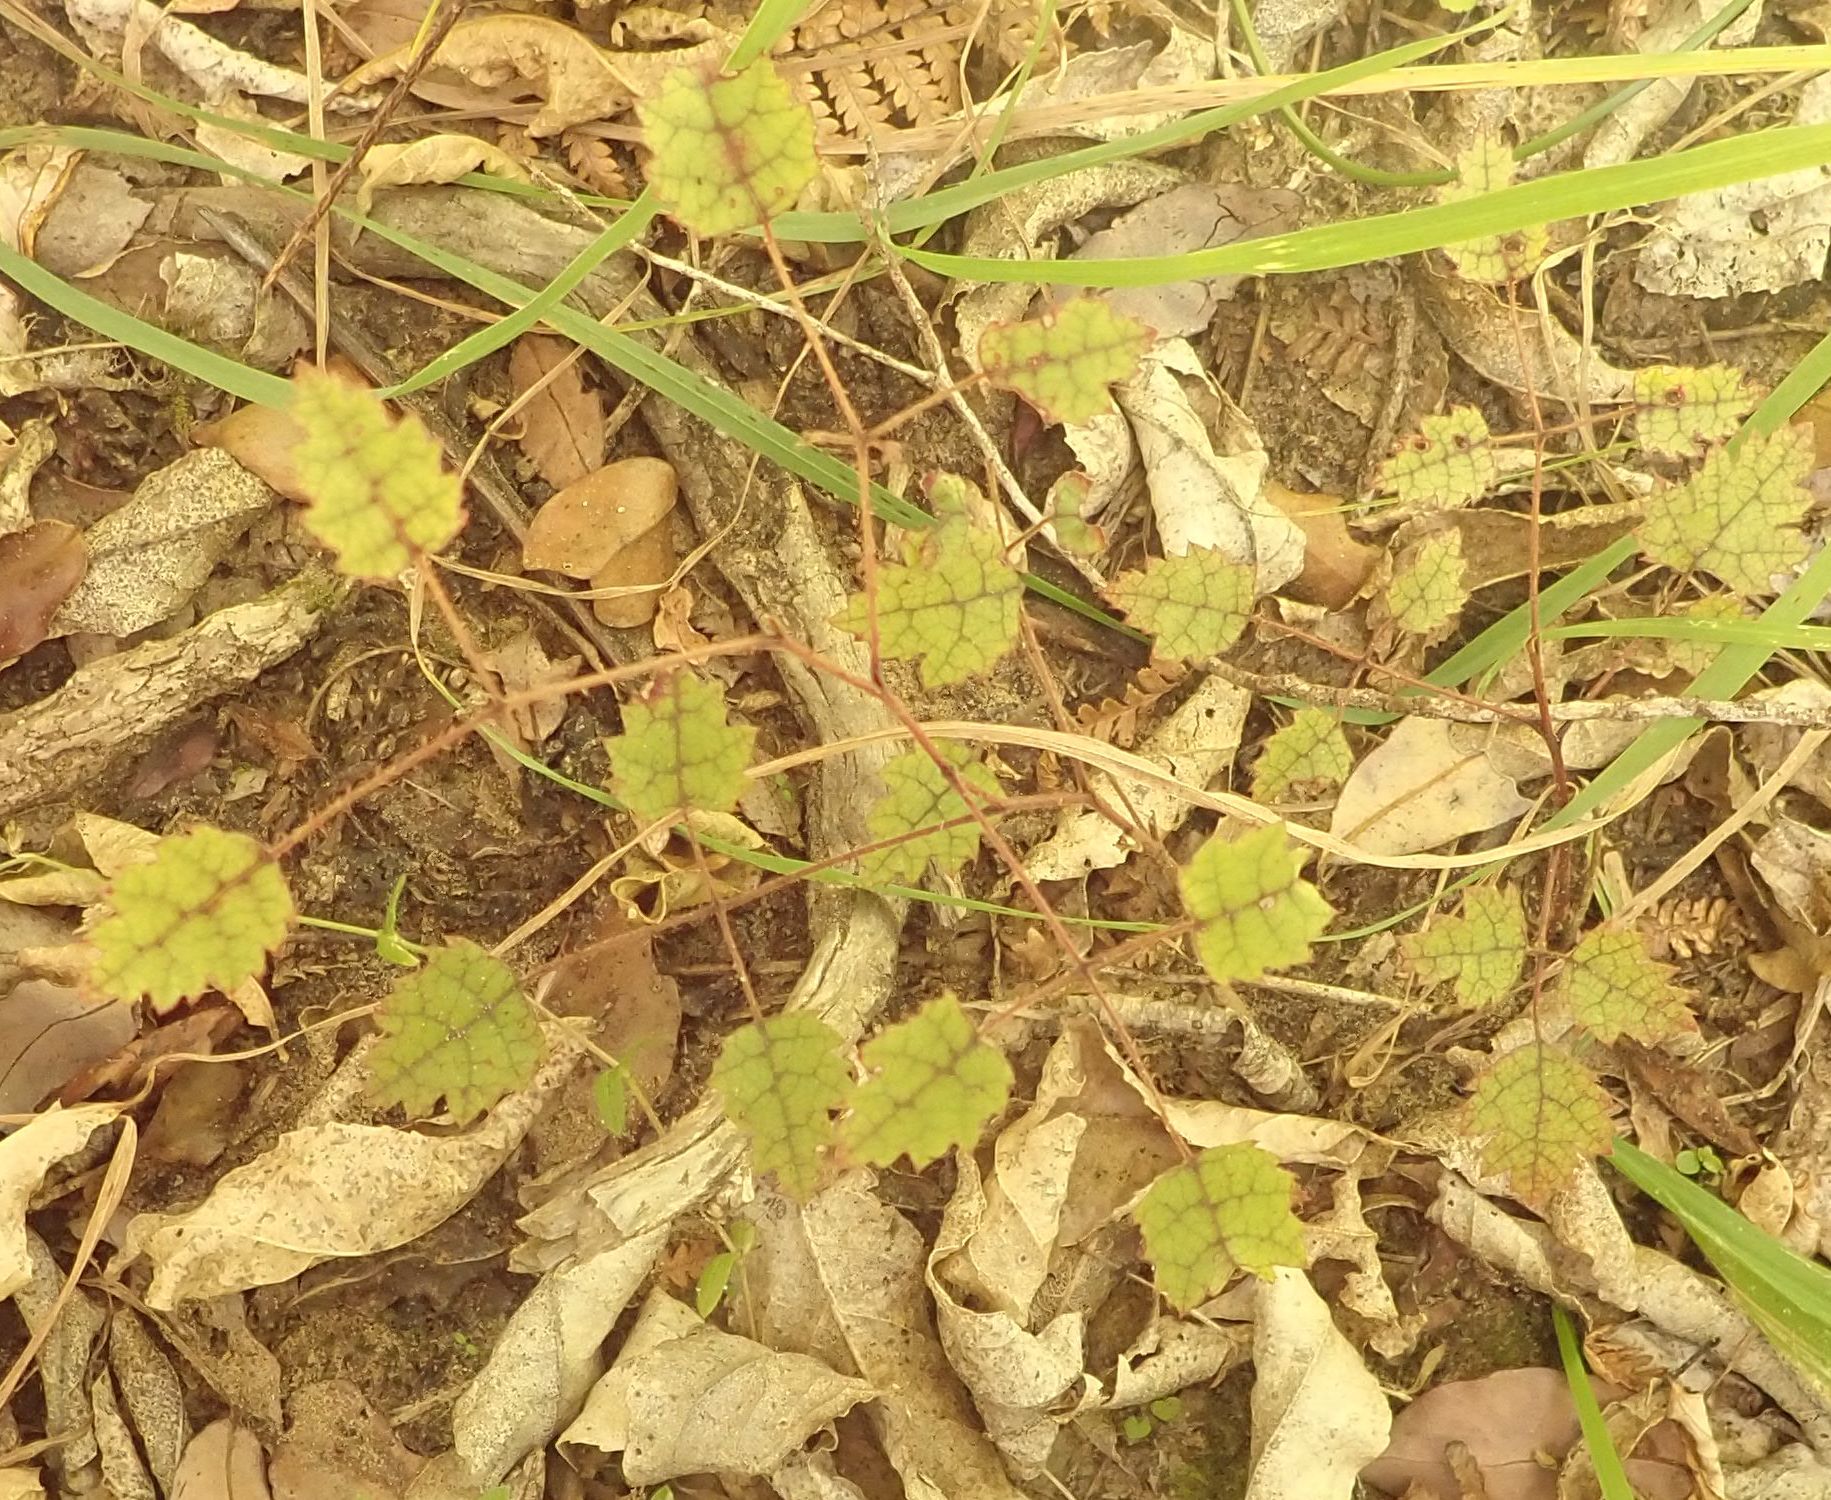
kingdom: Plantae
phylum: Tracheophyta
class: Magnoliopsida
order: Rosales
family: Rosaceae
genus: Rubus
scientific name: Rubus australis
